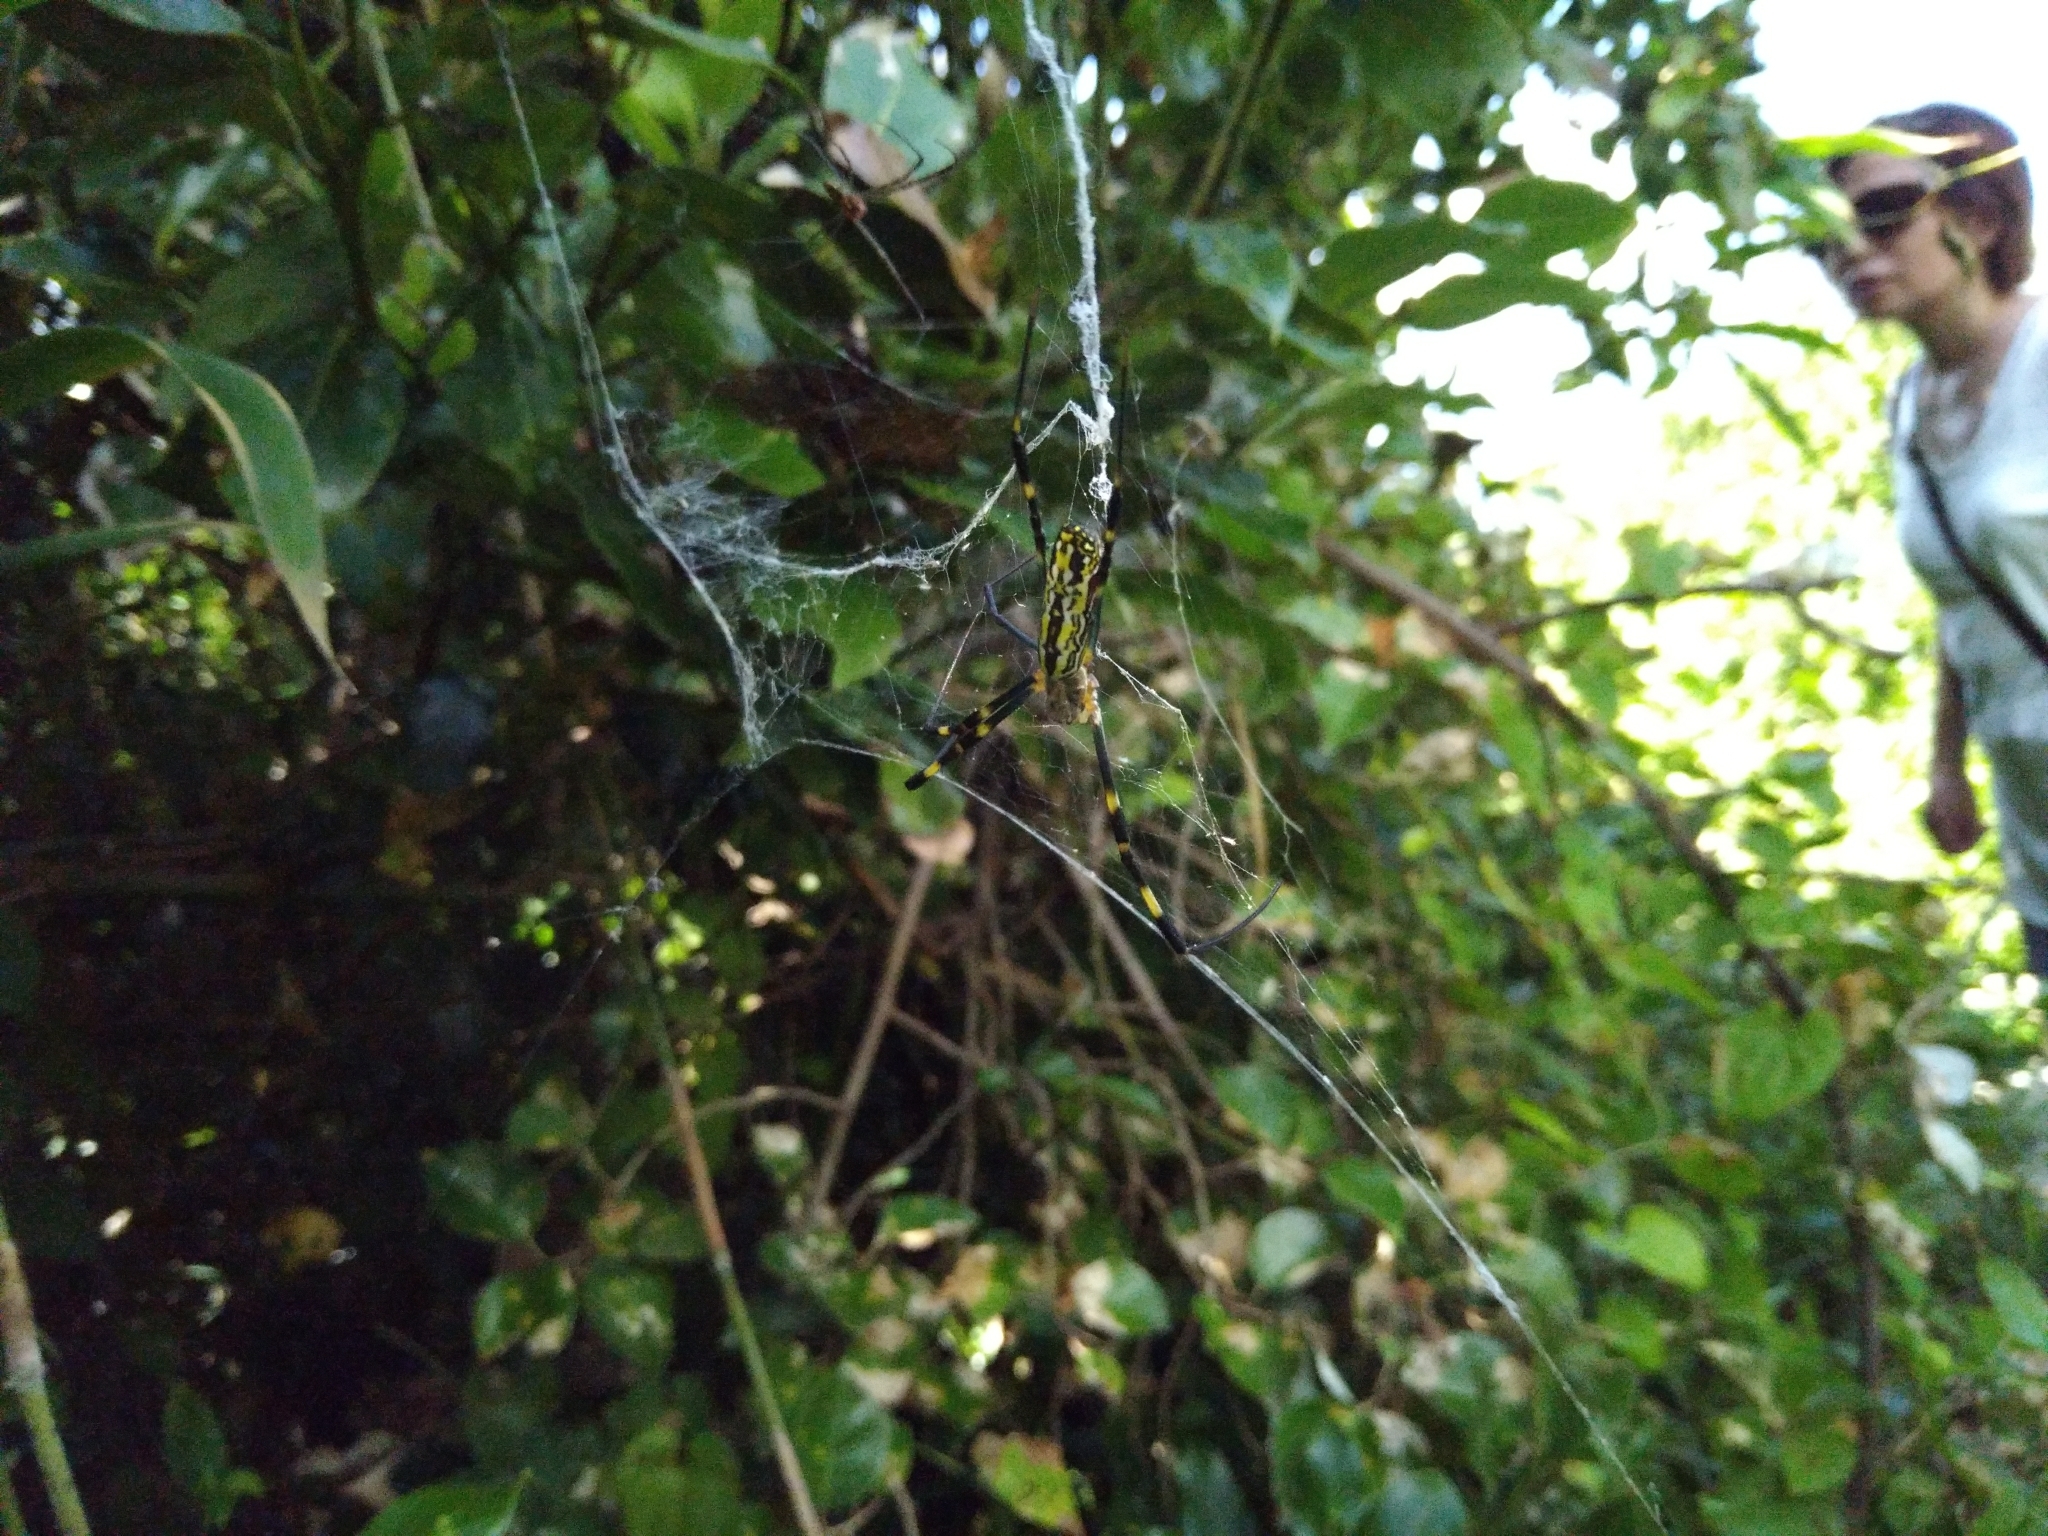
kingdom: Animalia
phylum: Arthropoda
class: Arachnida
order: Araneae
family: Araneidae
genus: Trichonephila
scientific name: Trichonephila clavata
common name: Jorō spider
